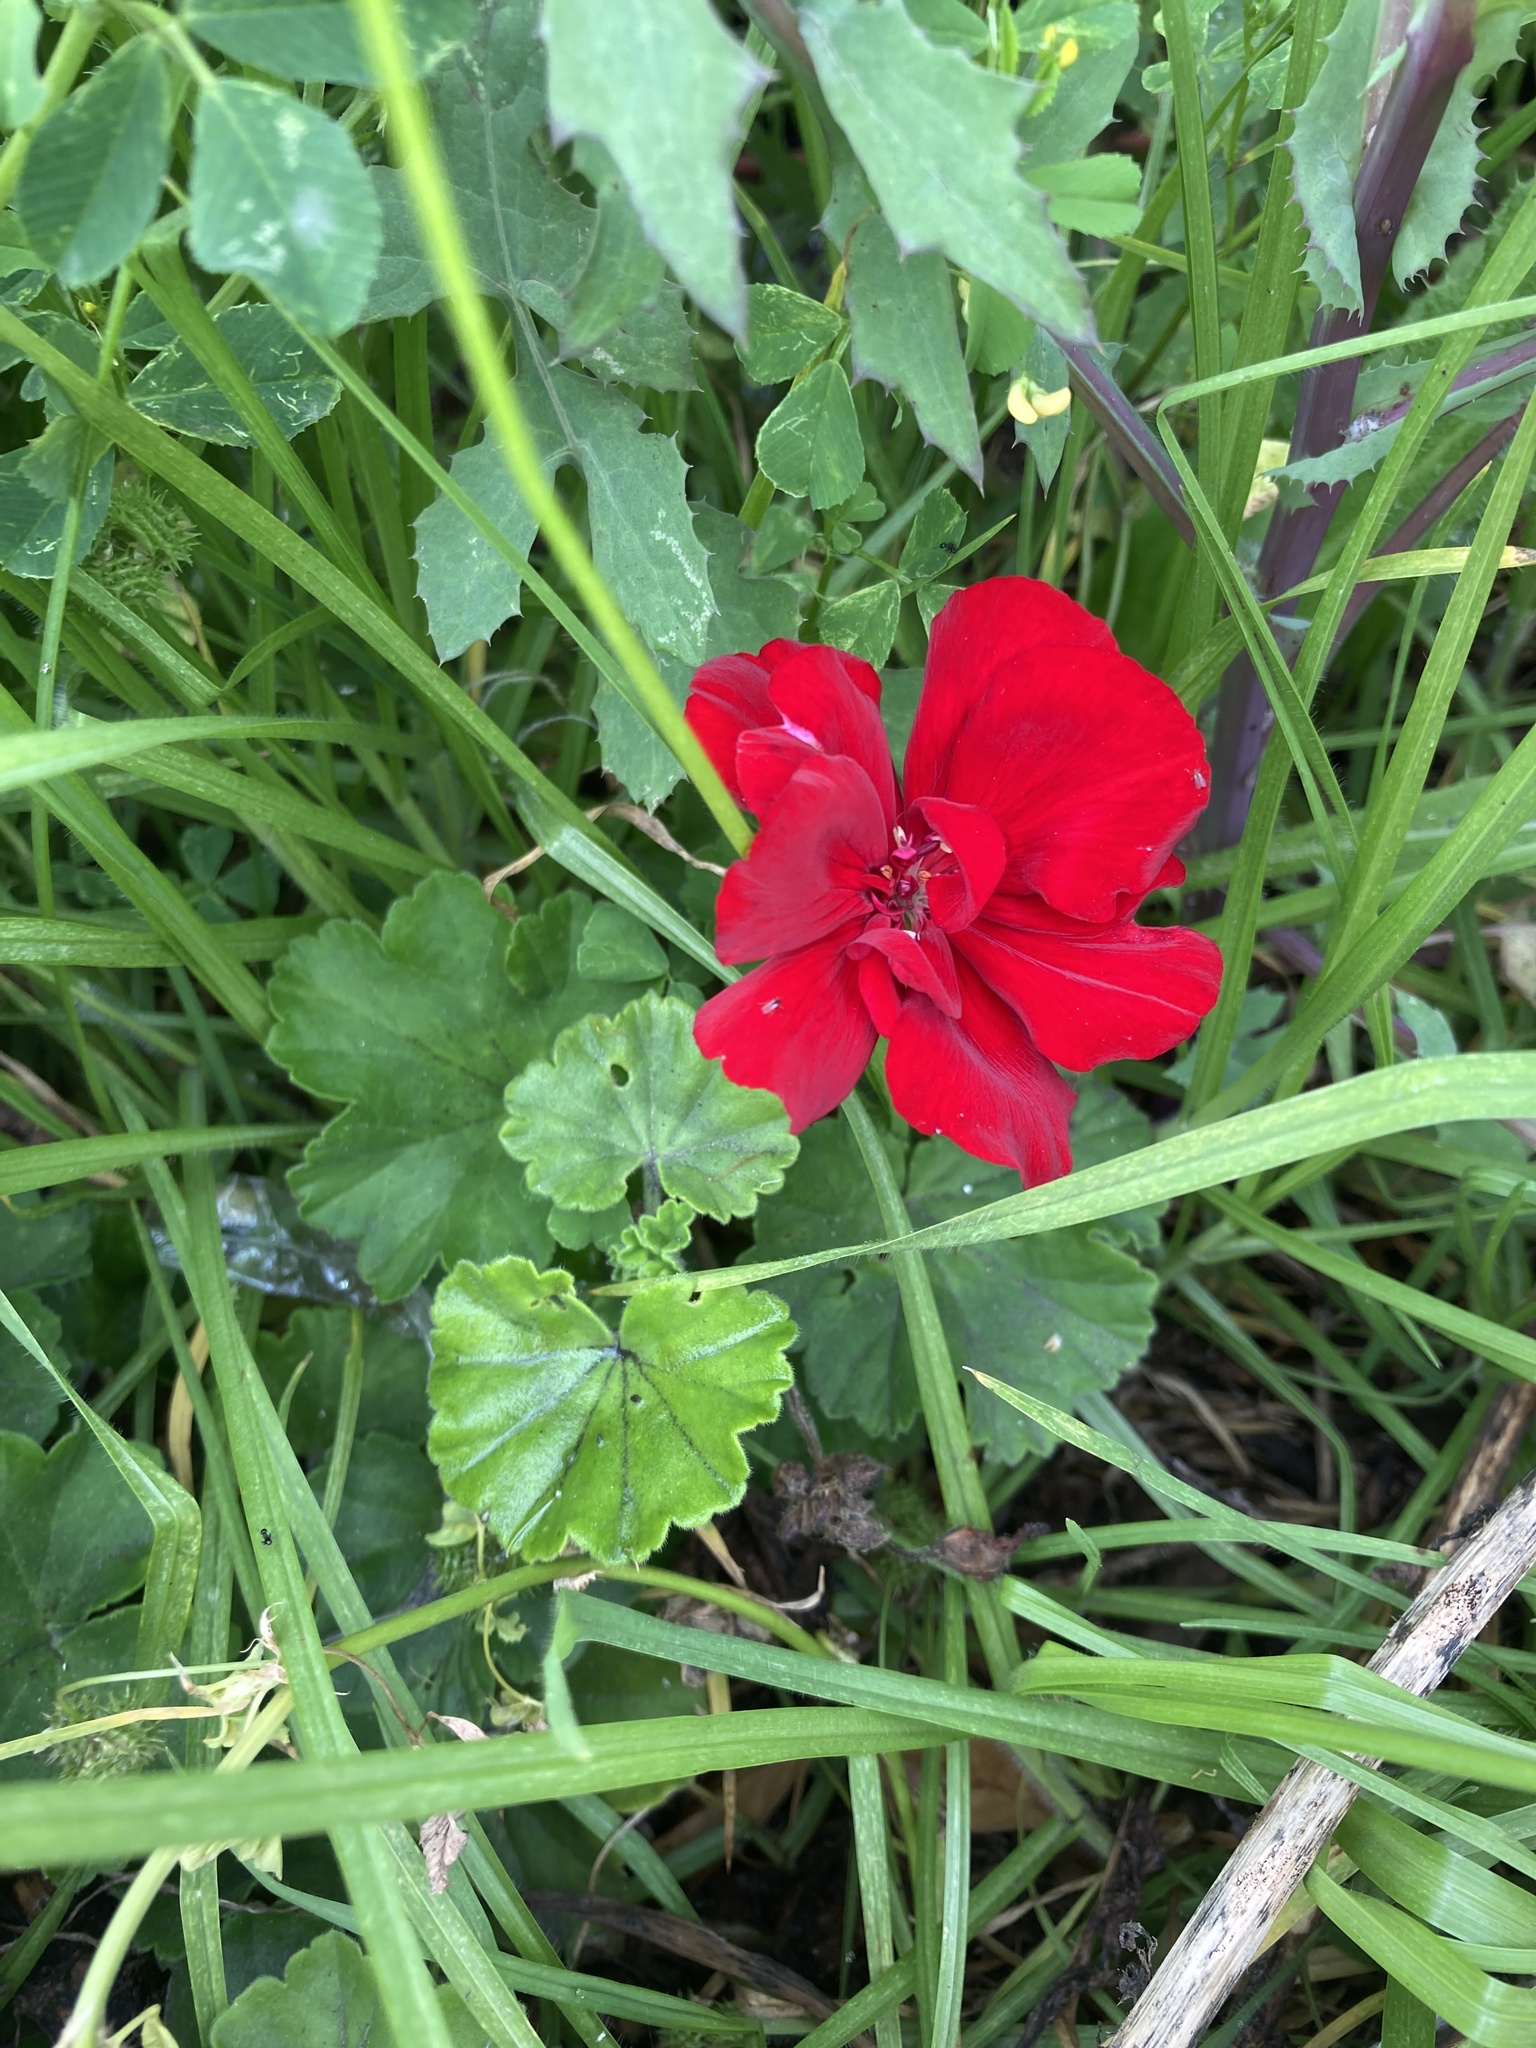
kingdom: Plantae
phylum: Tracheophyta
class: Magnoliopsida
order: Geraniales
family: Geraniaceae
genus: Pelargonium
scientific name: Pelargonium hybridum
